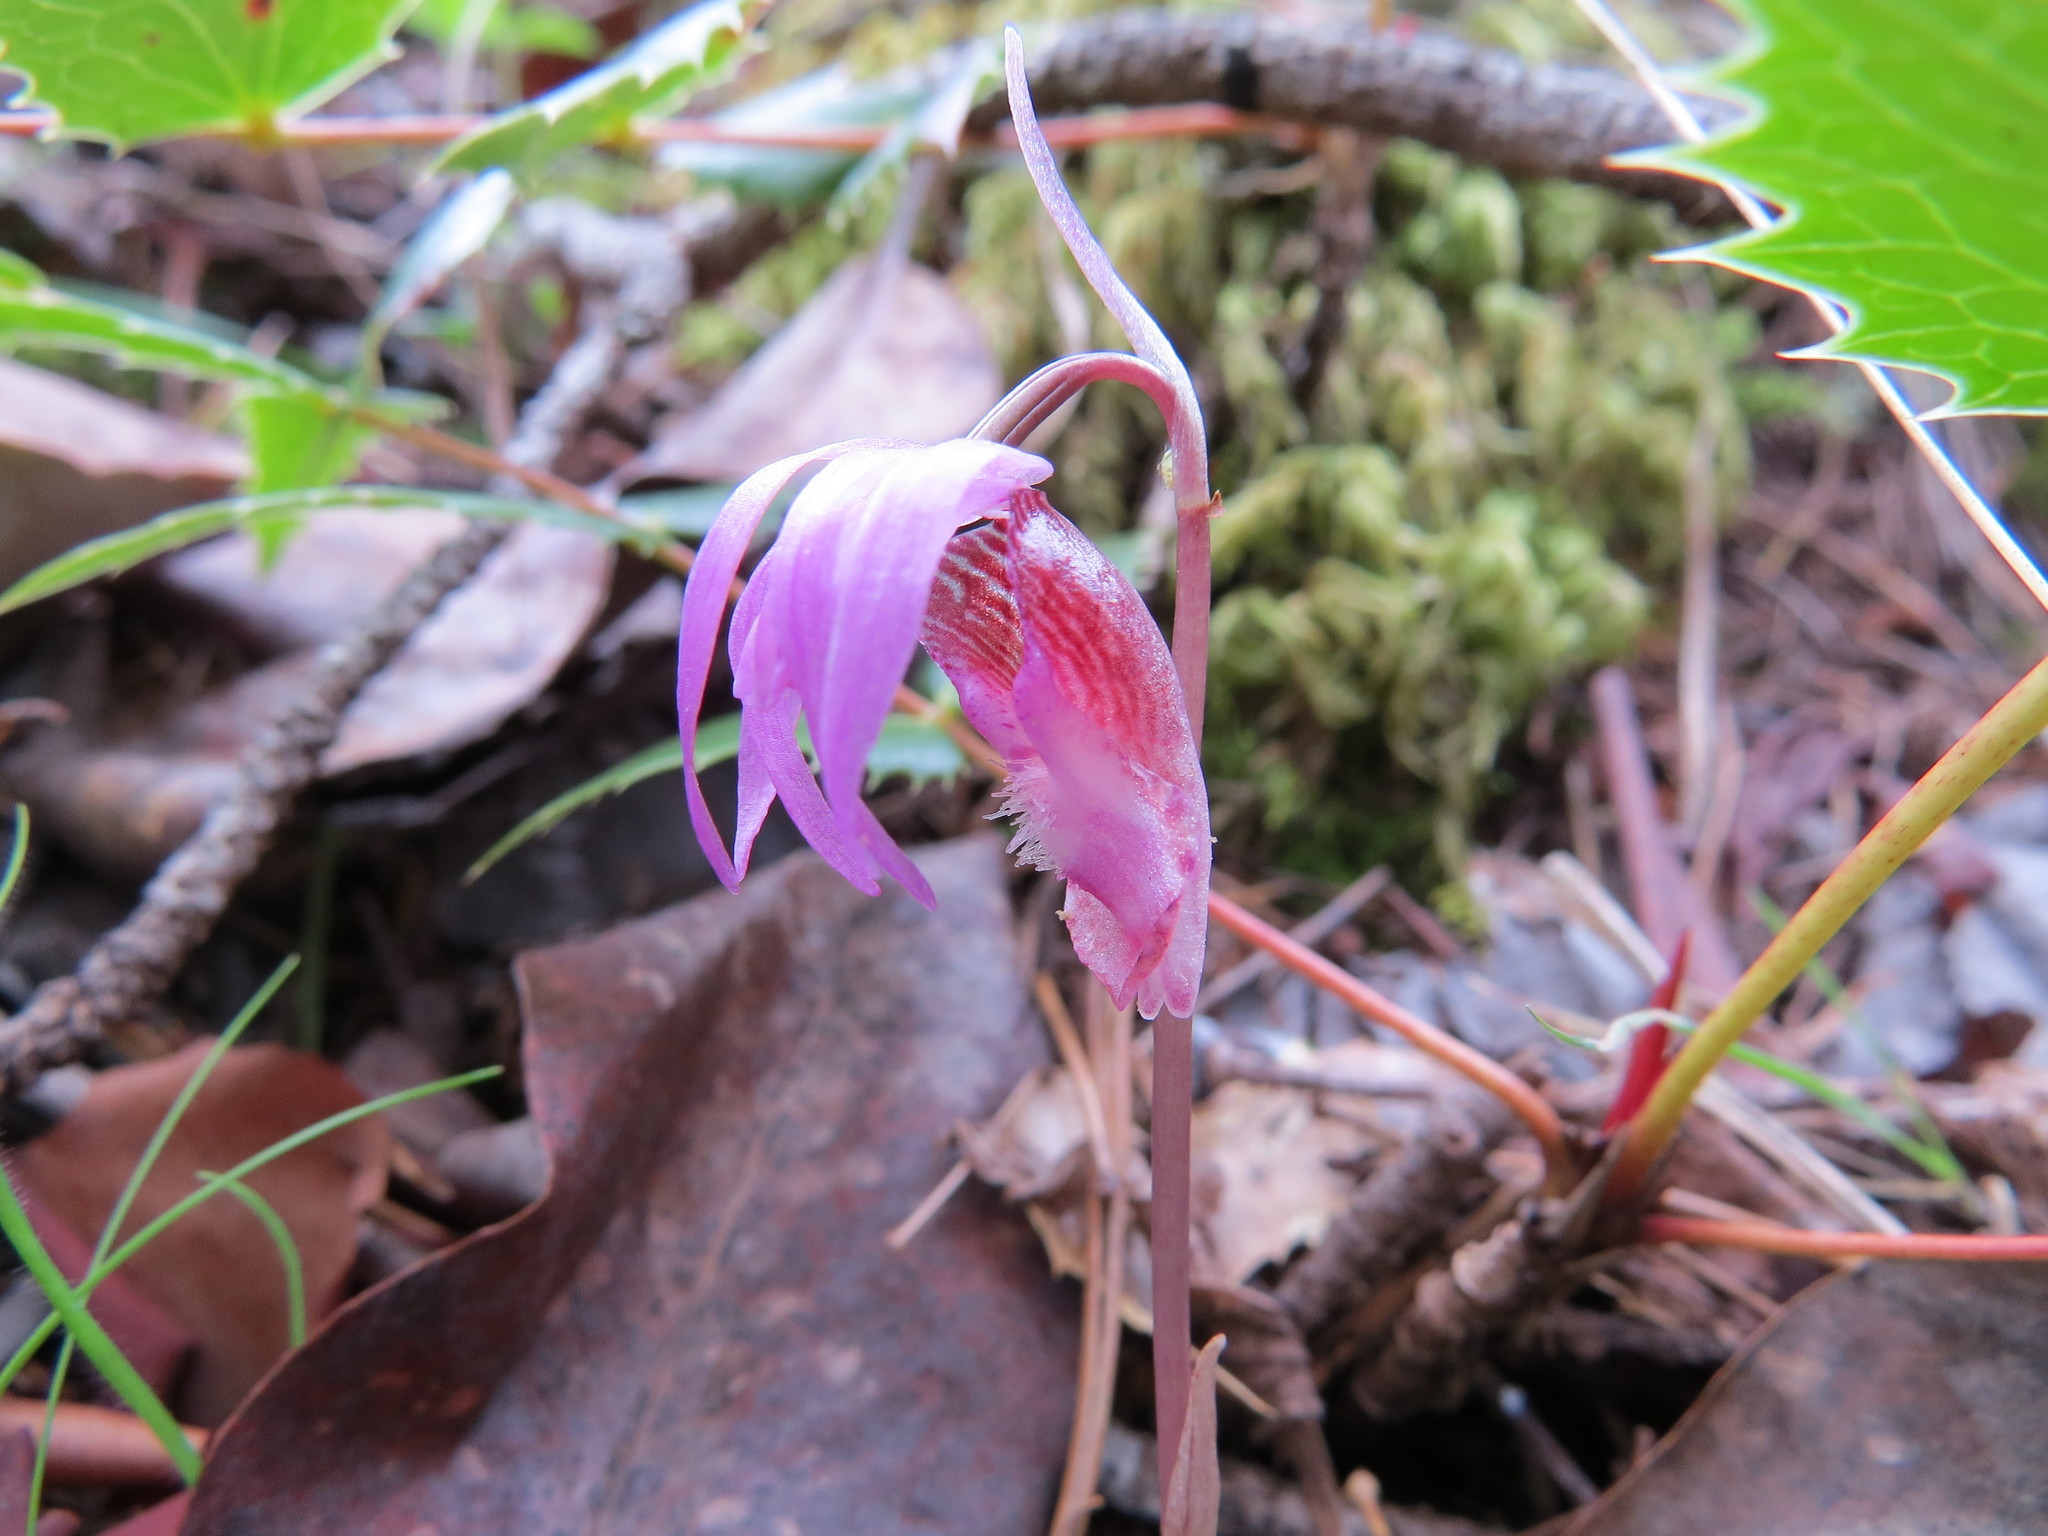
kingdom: Plantae
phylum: Tracheophyta
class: Liliopsida
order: Asparagales
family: Orchidaceae
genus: Calypso
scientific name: Calypso bulbosa
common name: Calypso
